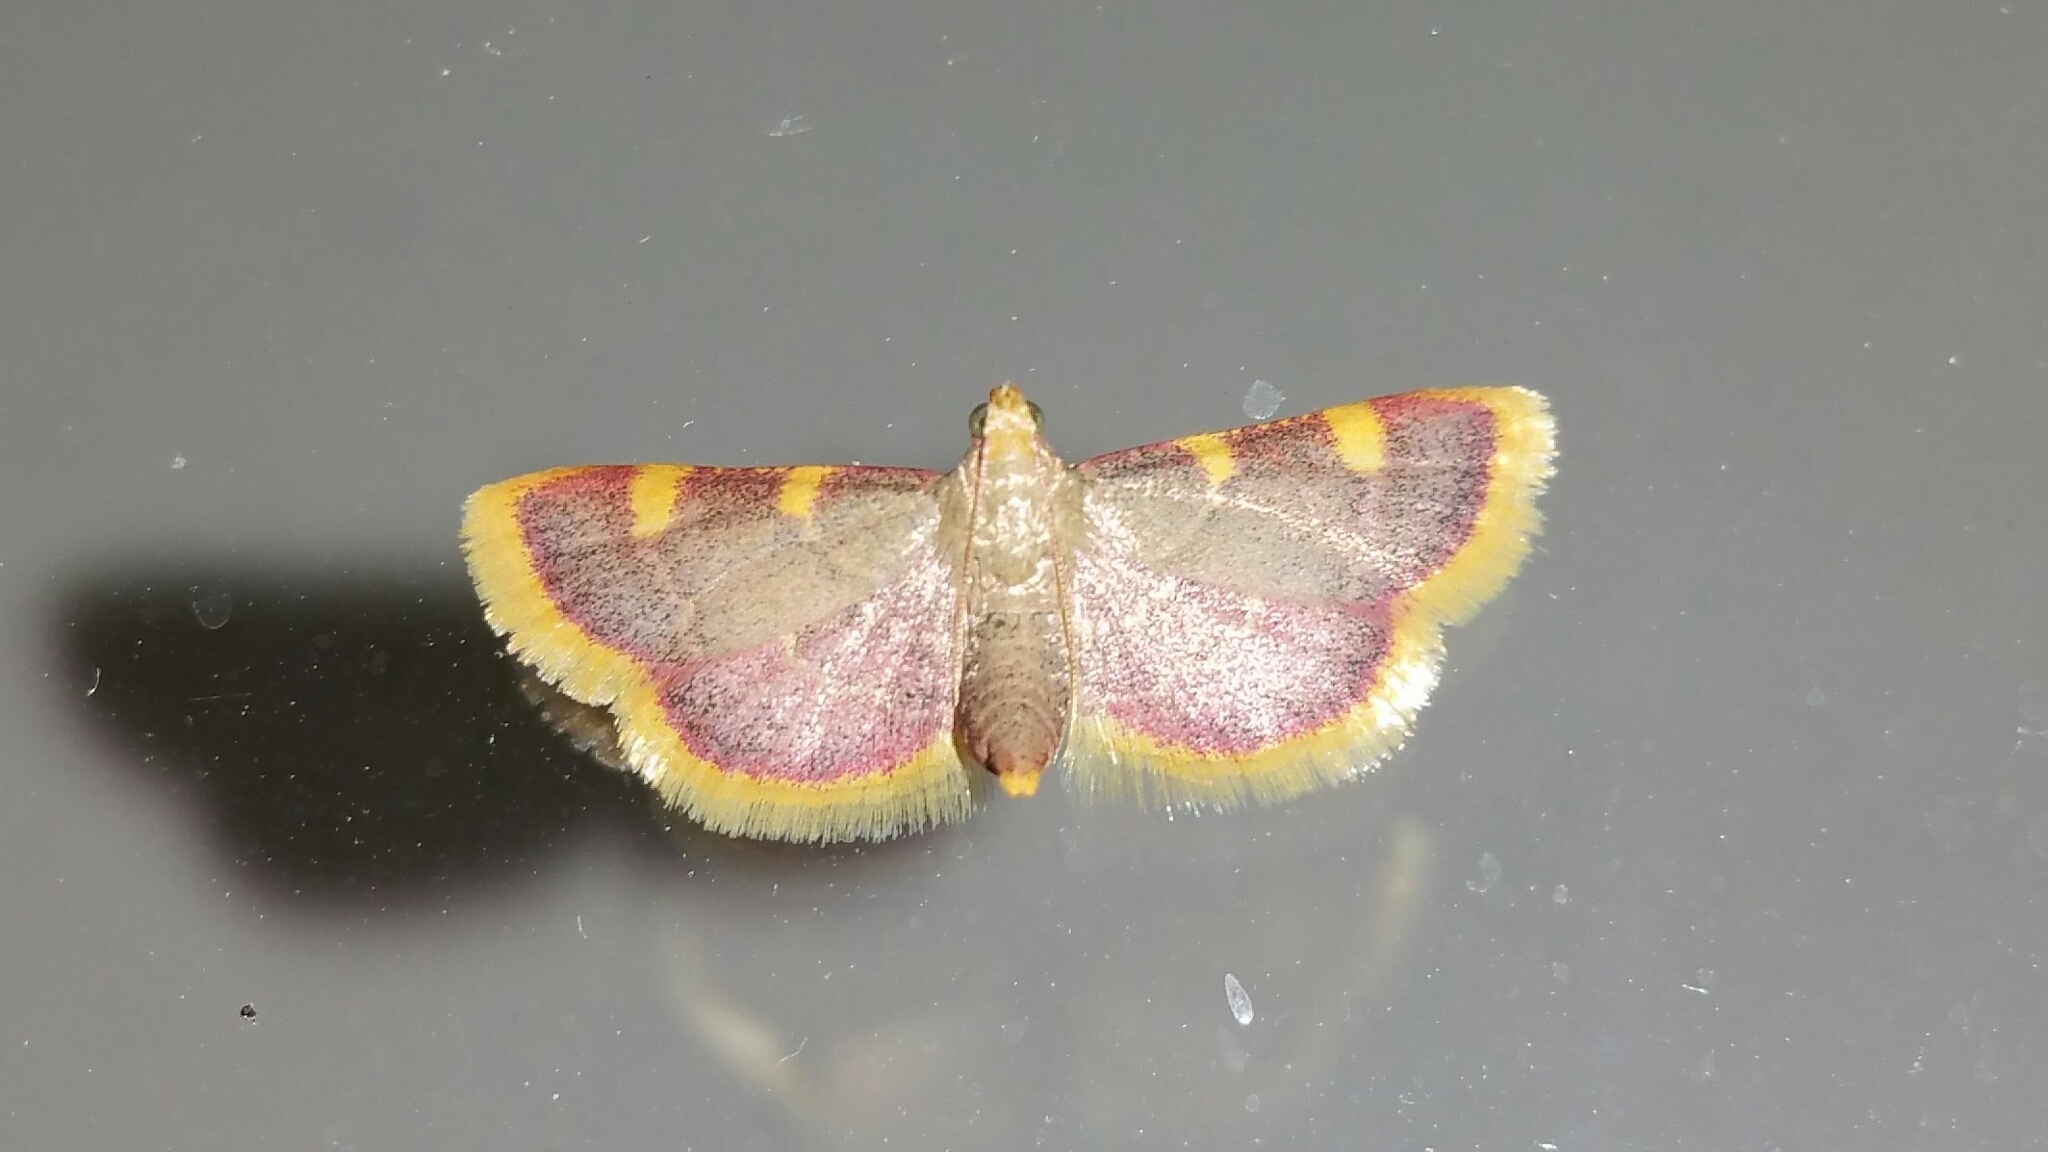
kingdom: Animalia
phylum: Arthropoda
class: Insecta
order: Lepidoptera
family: Pyralidae
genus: Hypsopygia
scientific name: Hypsopygia costalis
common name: Gold triangle
